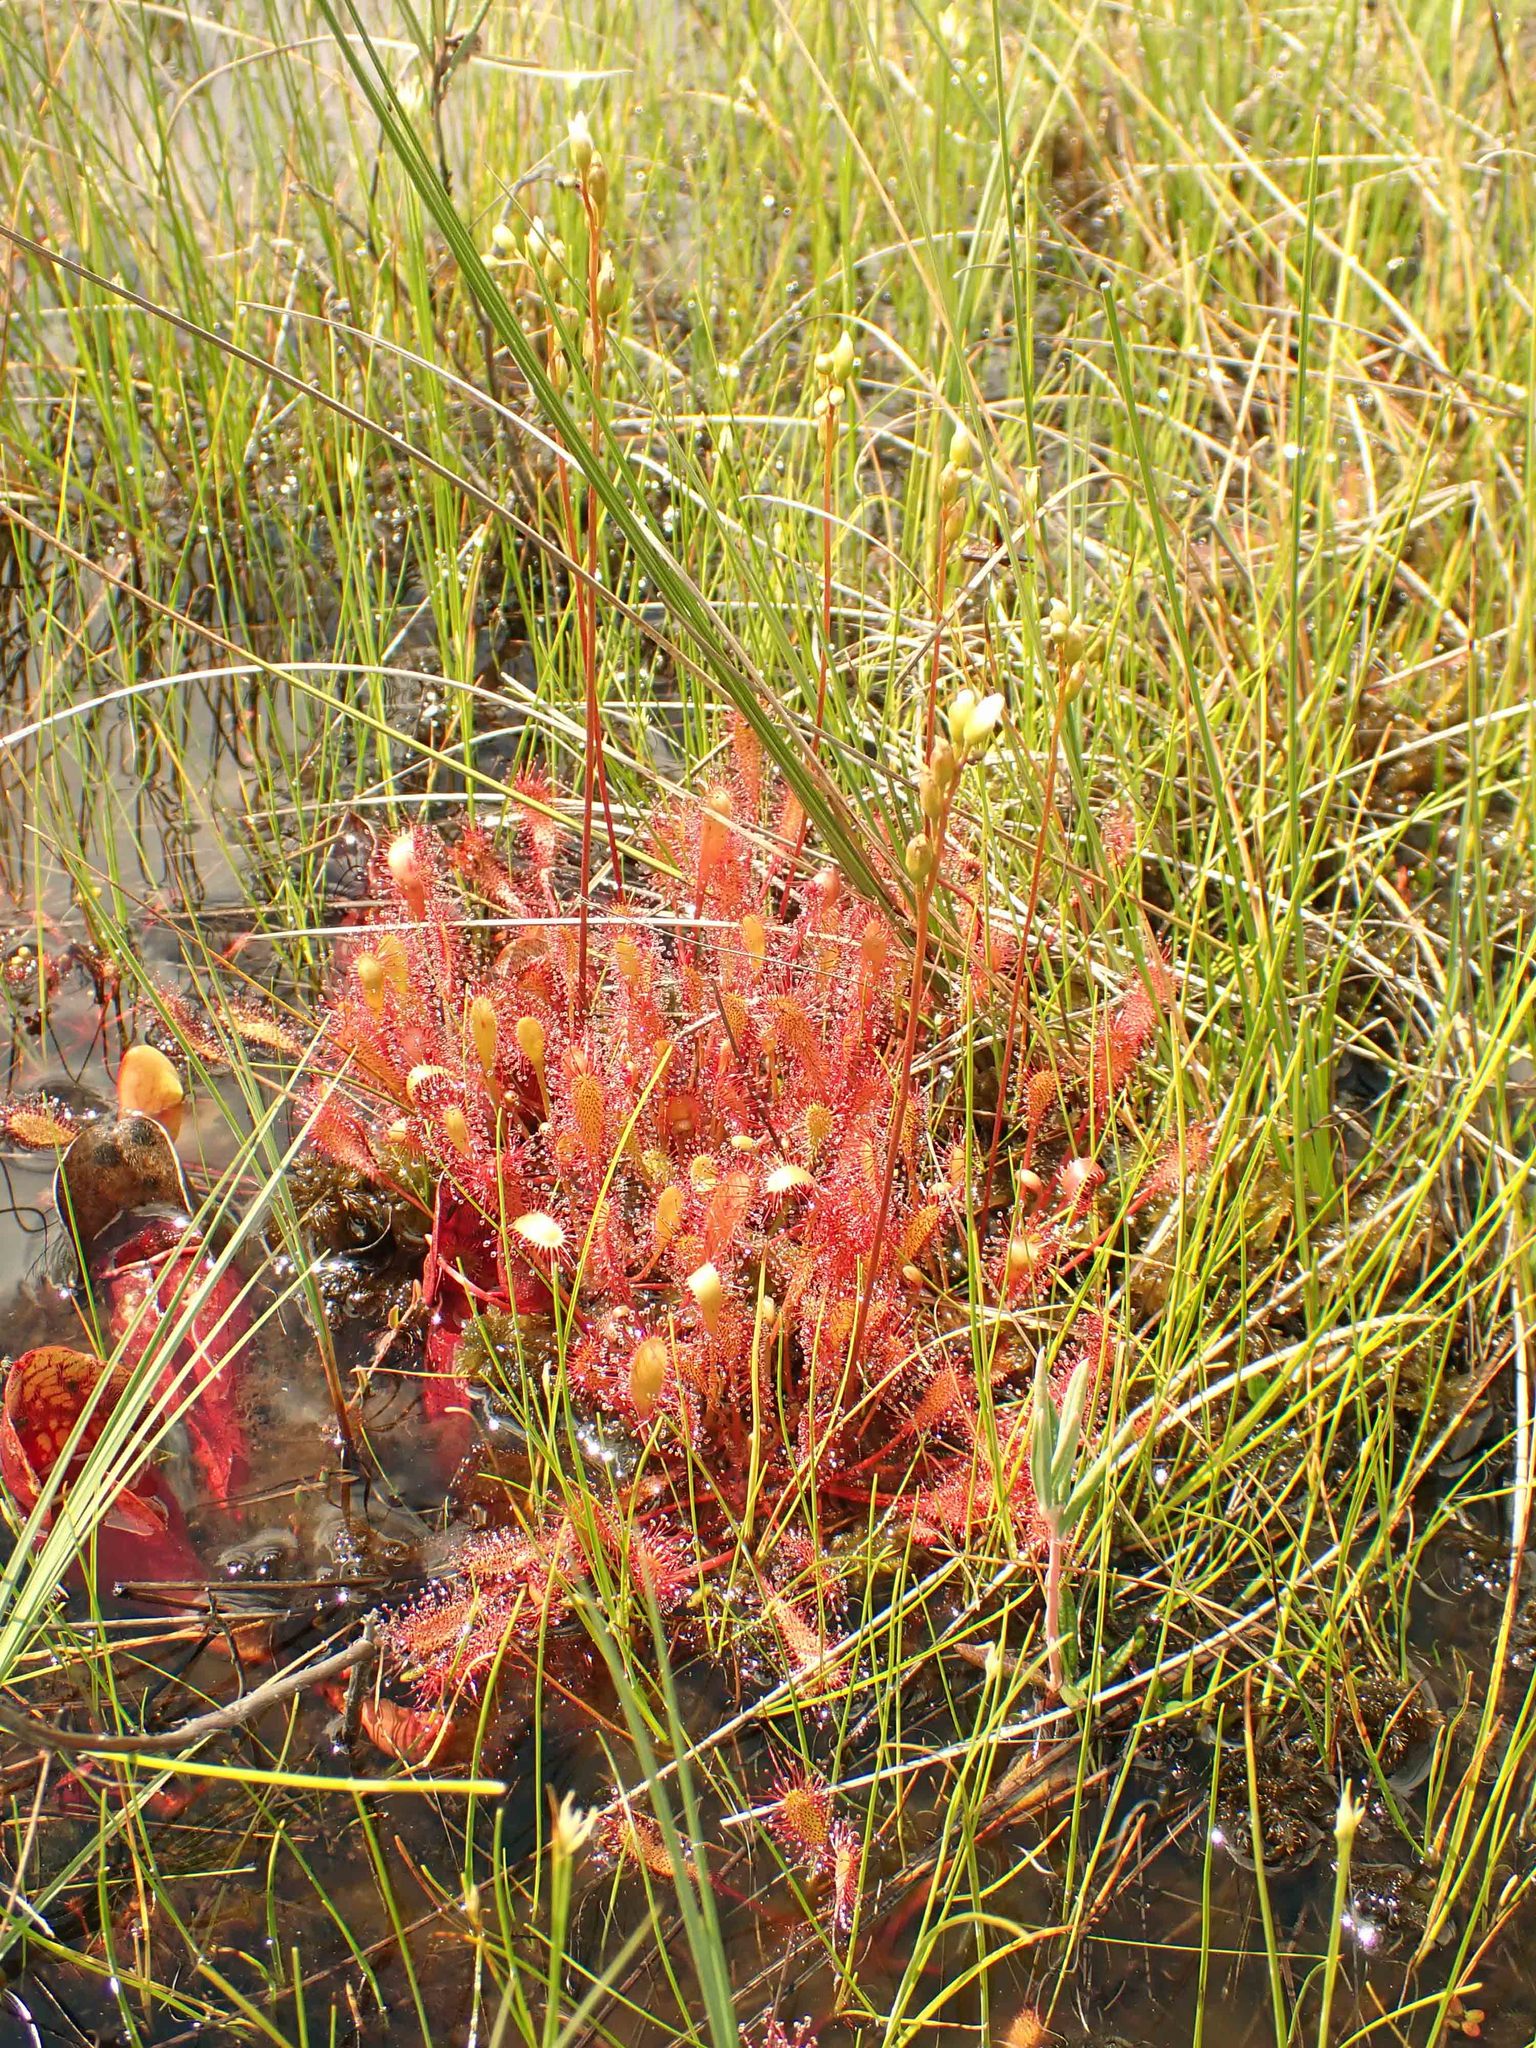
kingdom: Plantae
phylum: Tracheophyta
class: Magnoliopsida
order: Caryophyllales
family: Droseraceae
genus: Drosera
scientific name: Drosera anglica
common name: Great sundew
